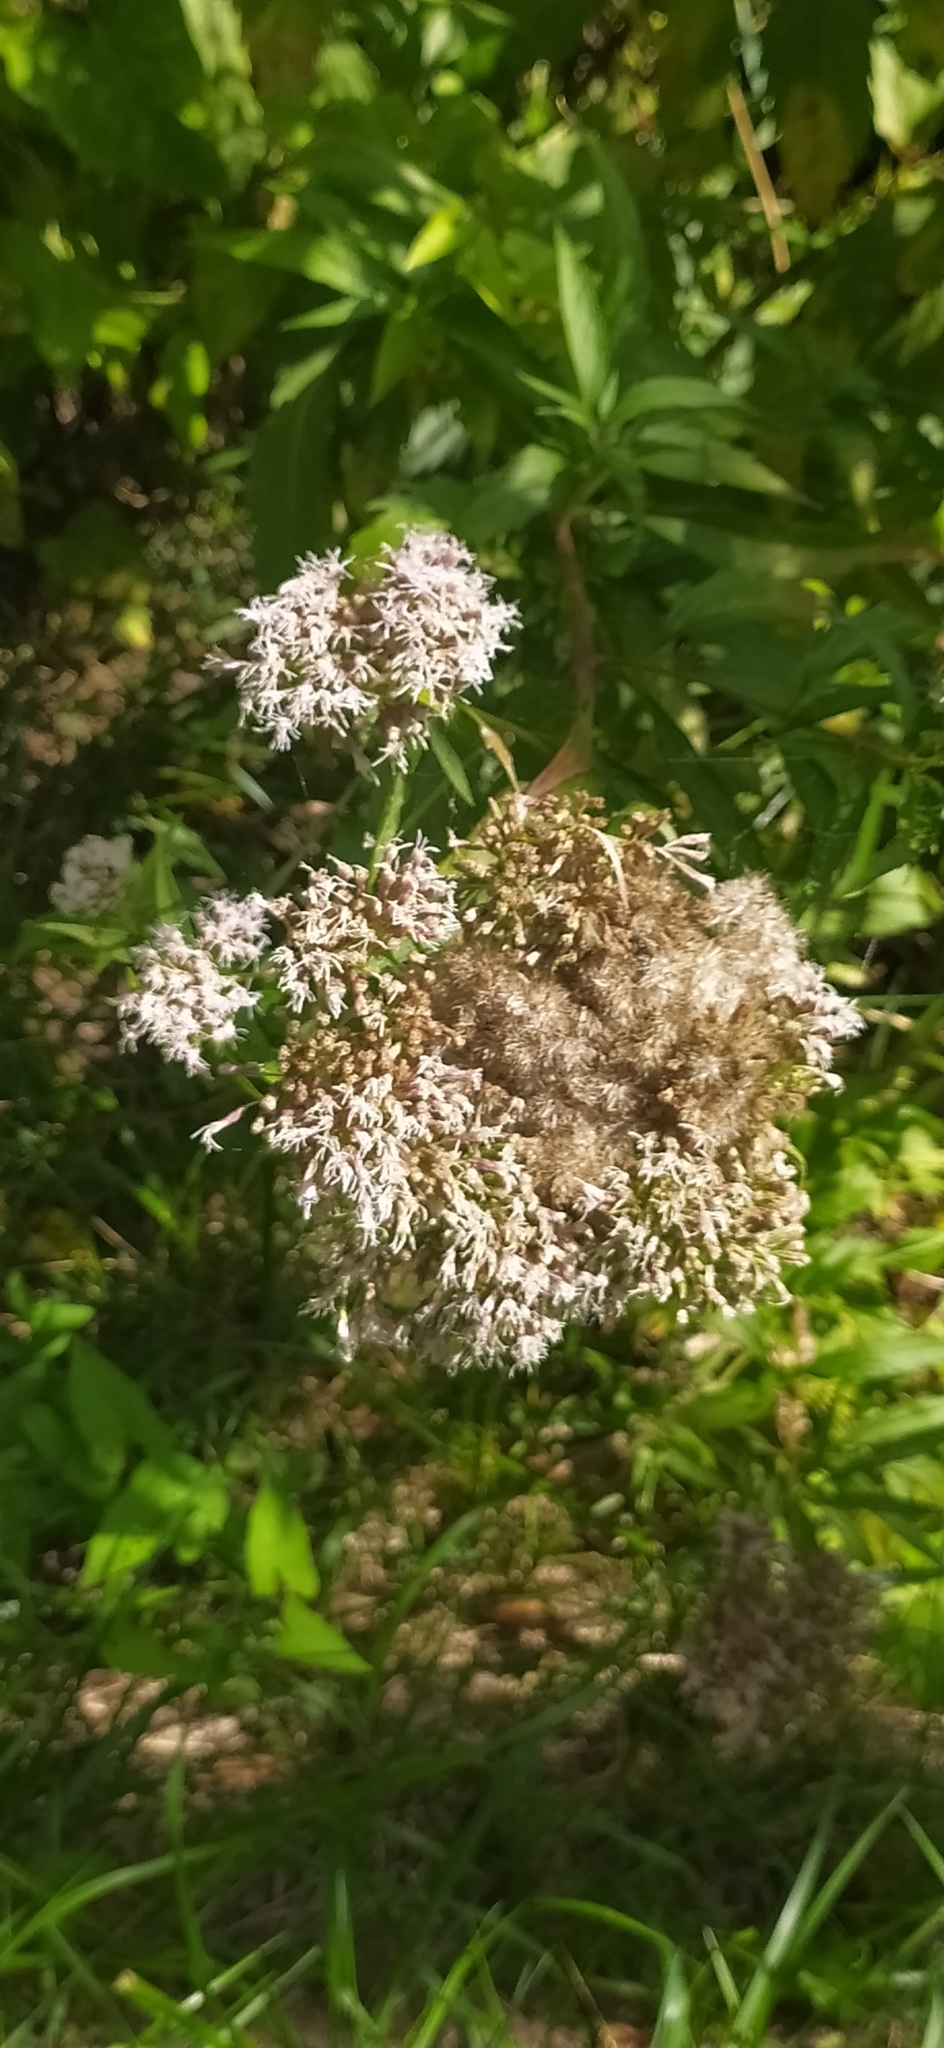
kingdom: Plantae
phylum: Tracheophyta
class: Magnoliopsida
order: Asterales
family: Asteraceae
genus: Eupatorium
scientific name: Eupatorium cannabinum
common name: Hemp-agrimony
